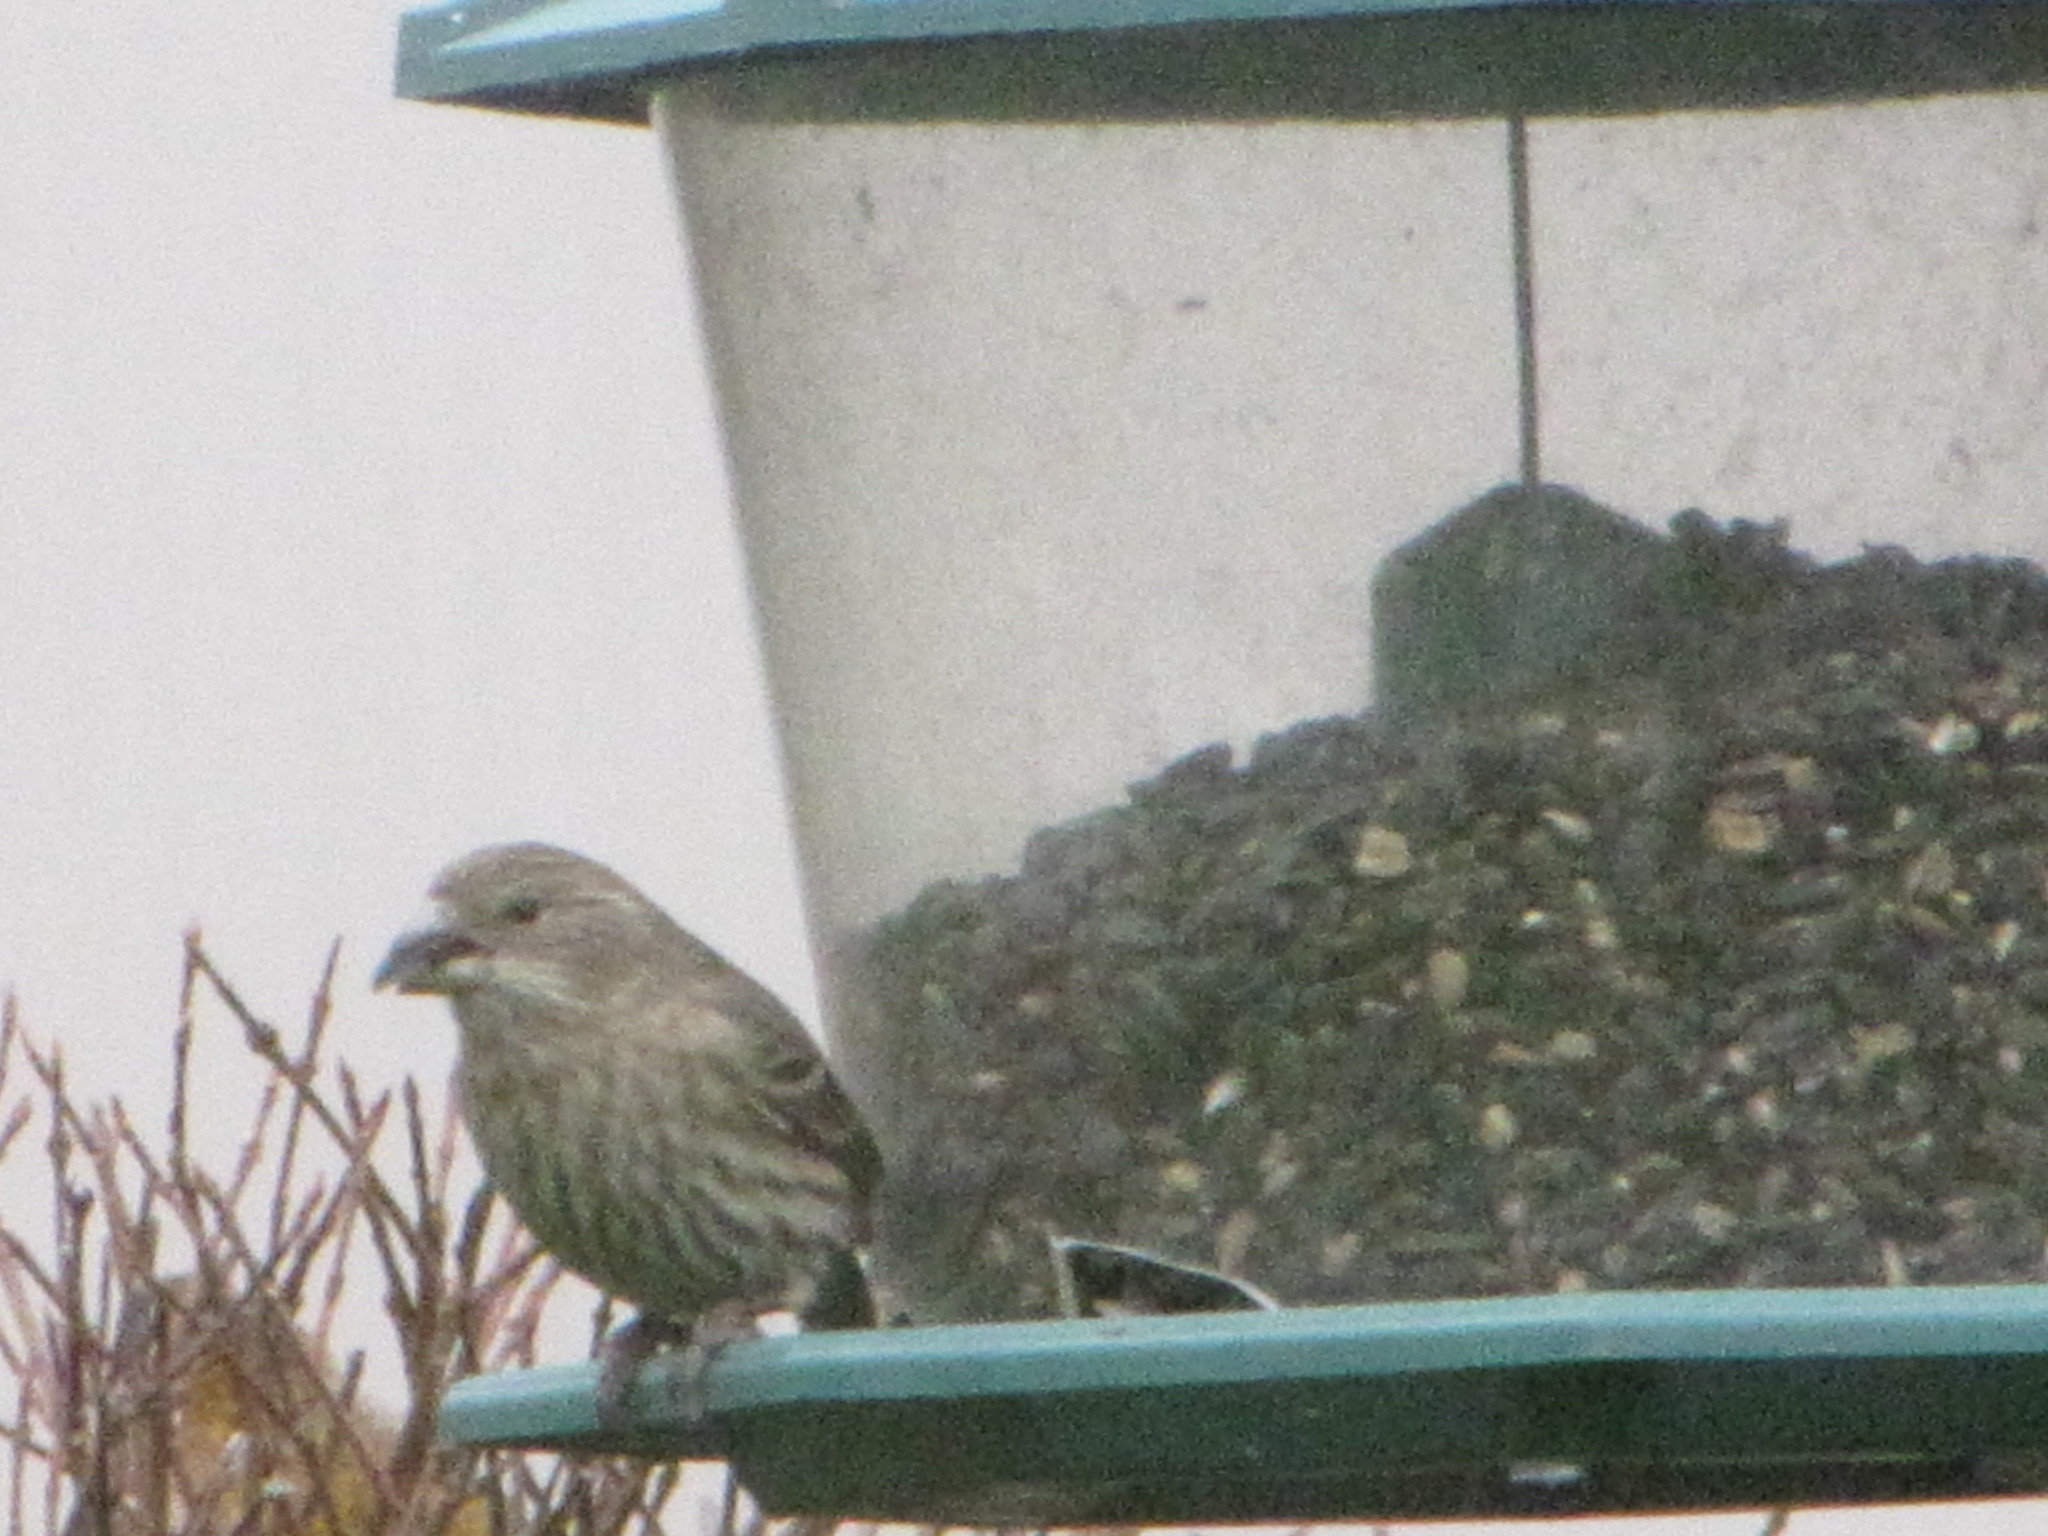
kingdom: Animalia
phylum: Chordata
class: Aves
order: Passeriformes
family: Fringillidae
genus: Haemorhous
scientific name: Haemorhous mexicanus
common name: House finch
